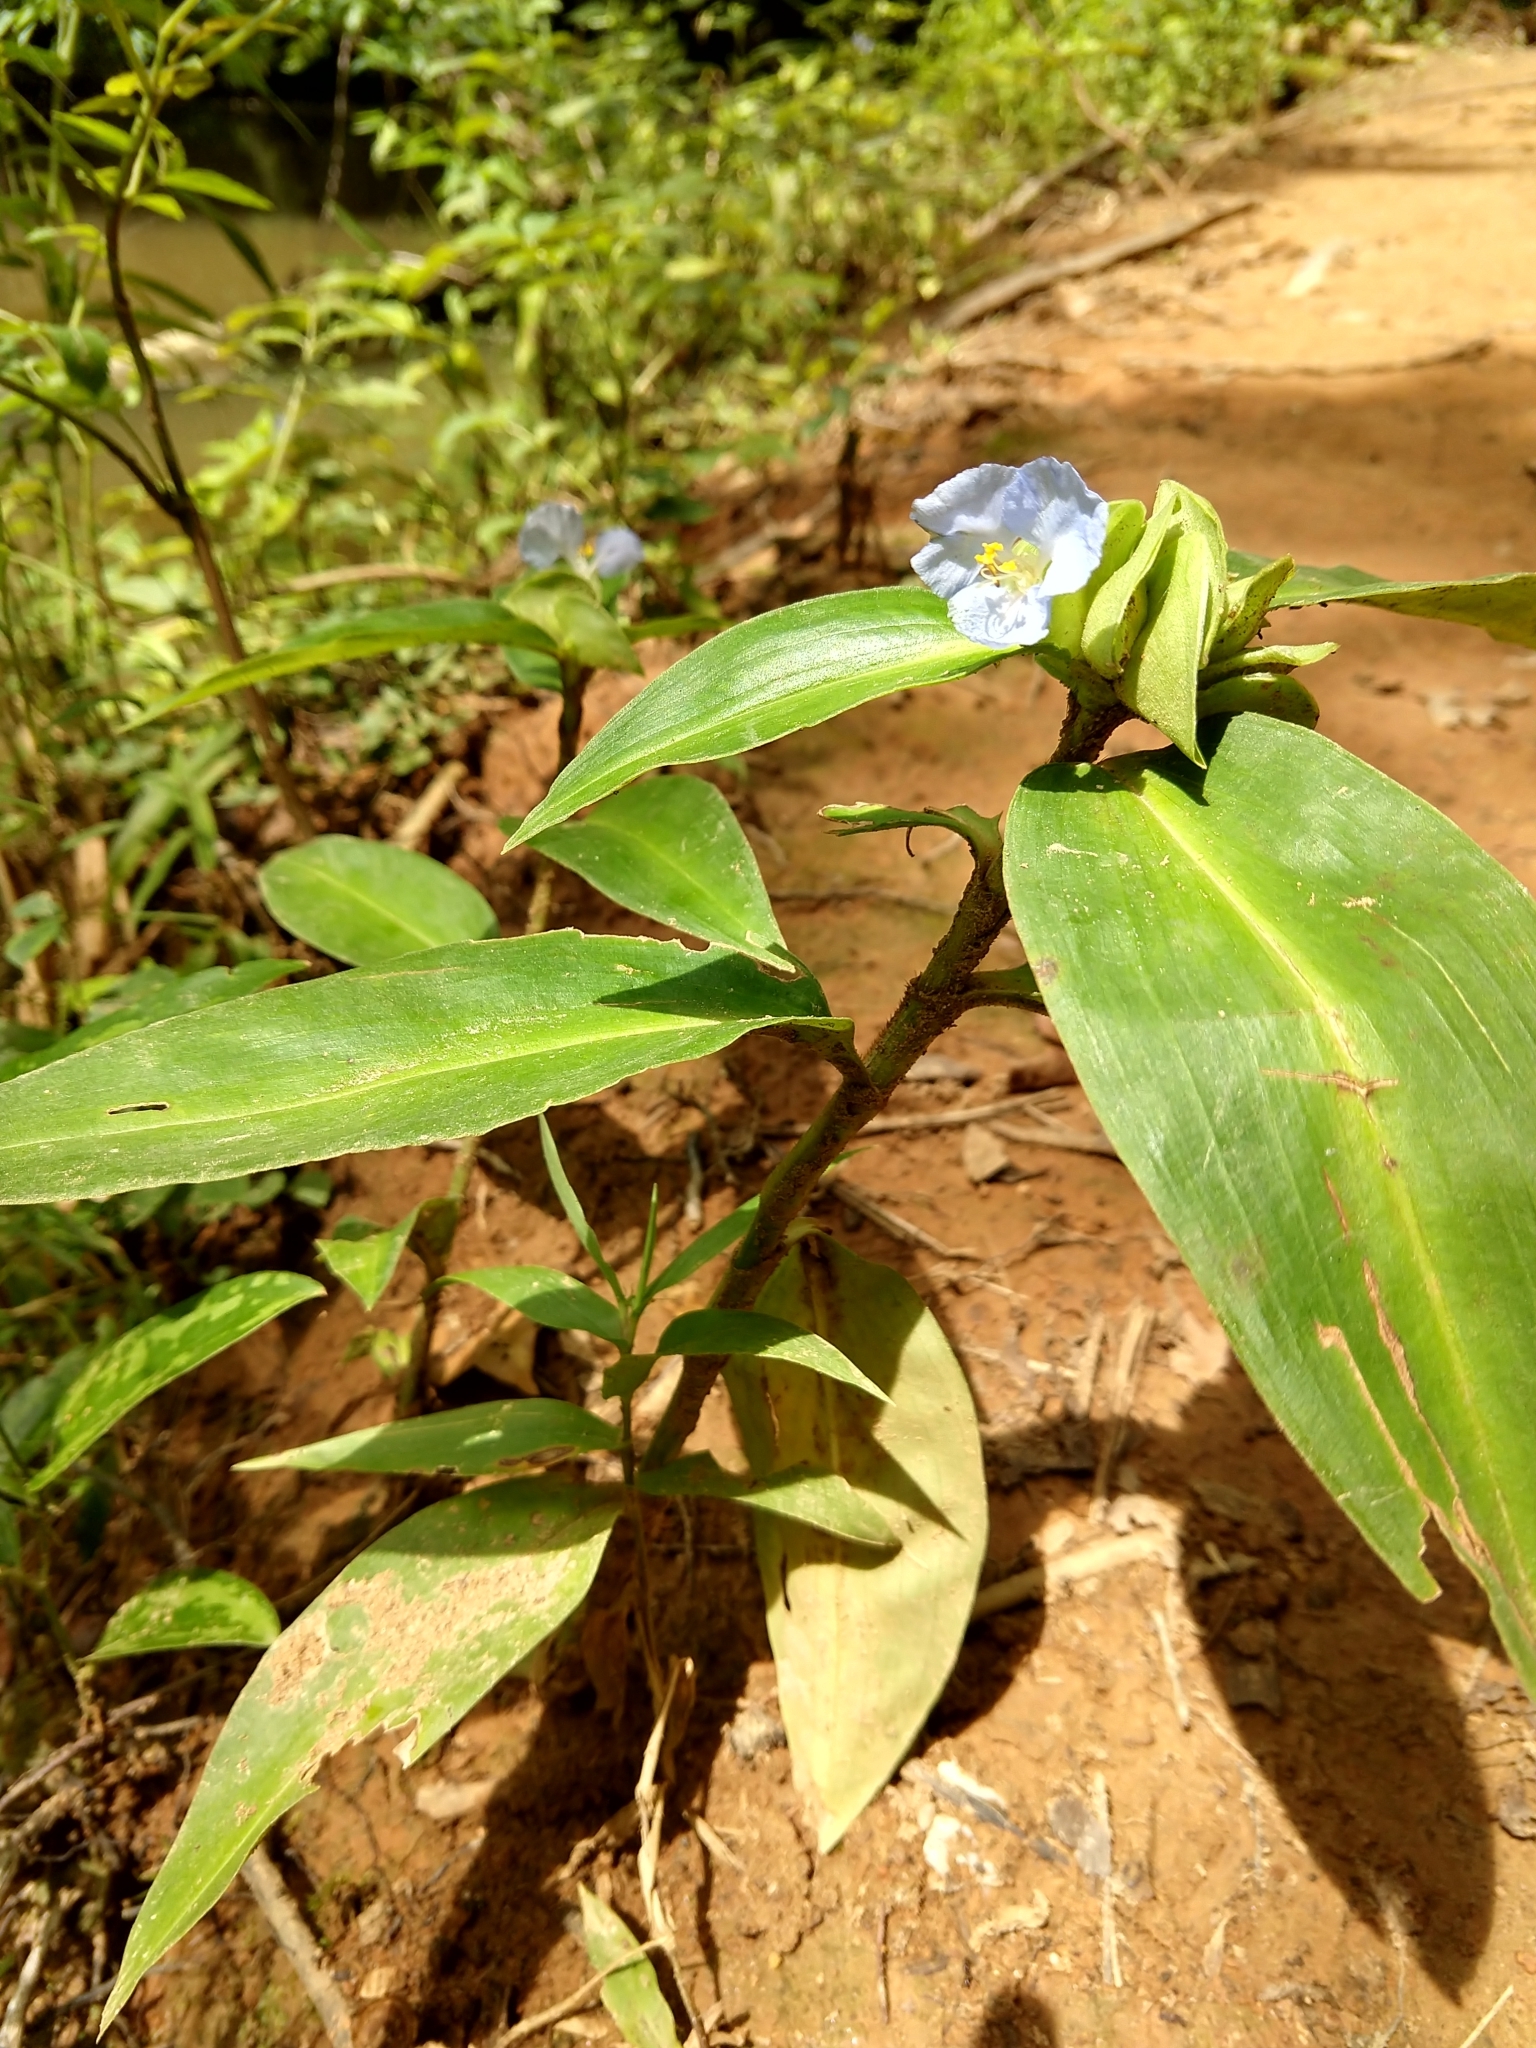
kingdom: Plantae
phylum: Tracheophyta
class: Liliopsida
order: Commelinales
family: Commelinaceae
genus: Commelina
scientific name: Commelina virginica
